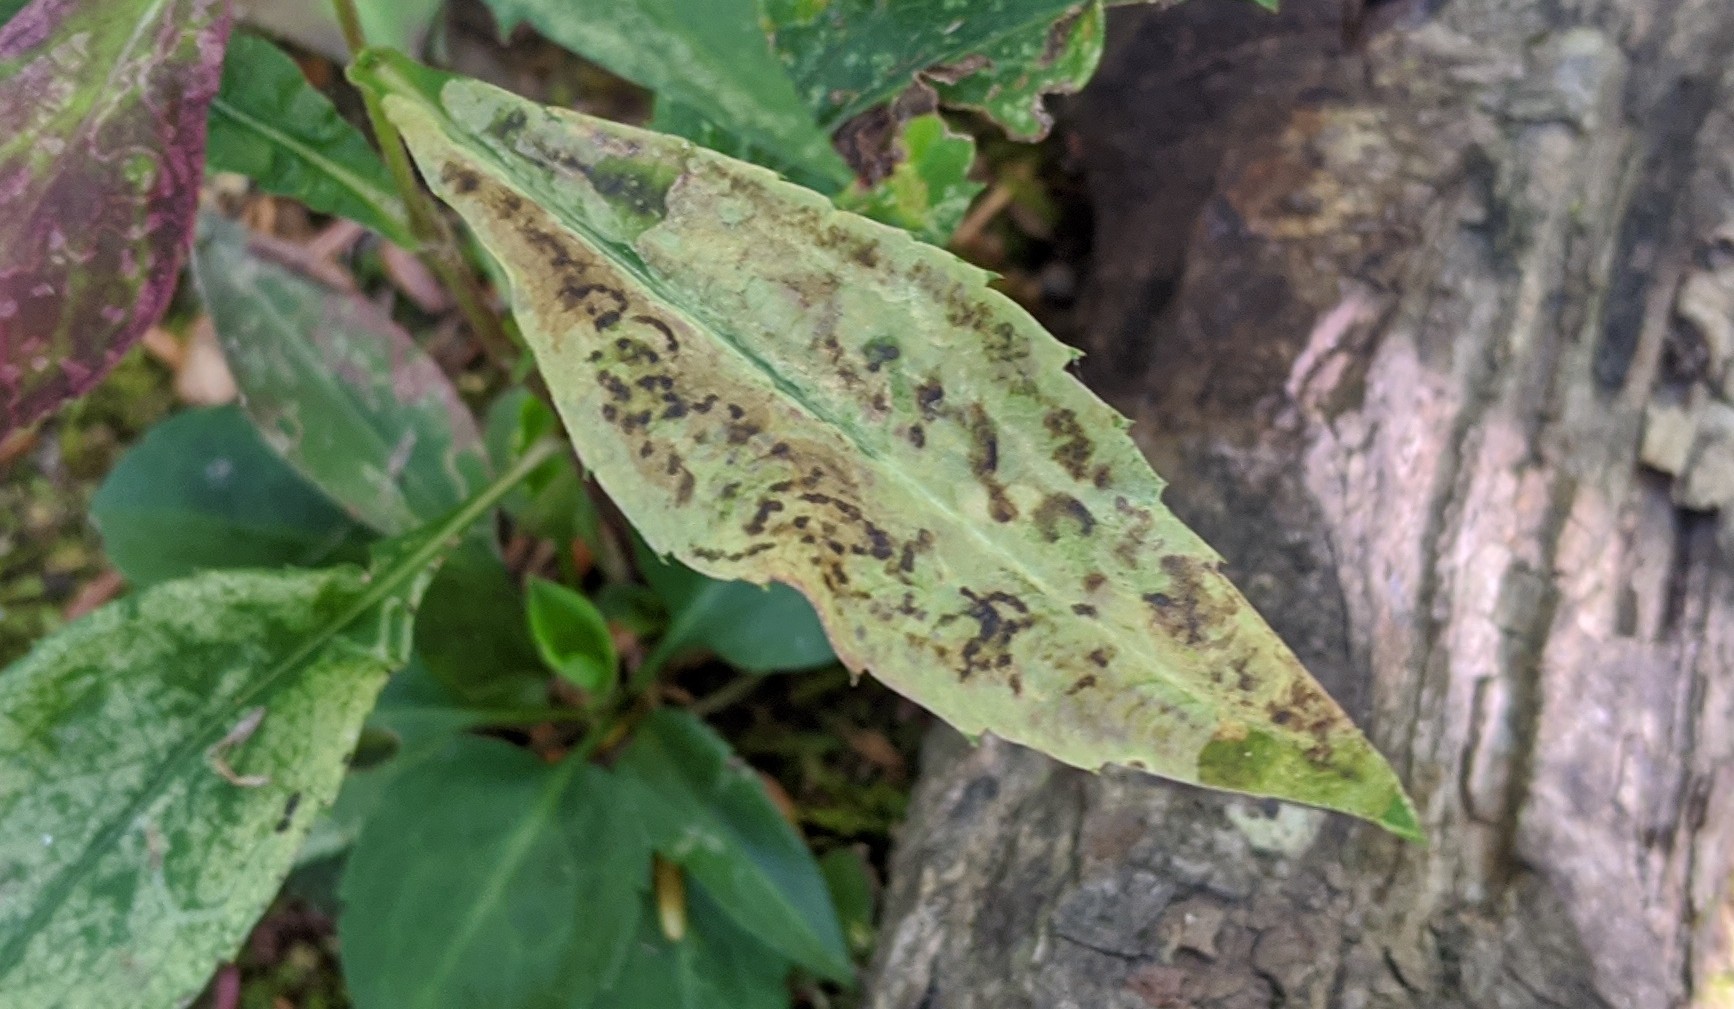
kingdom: Animalia
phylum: Arthropoda
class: Insecta
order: Diptera
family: Agromyzidae
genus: Nemorimyza
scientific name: Nemorimyza posticata
